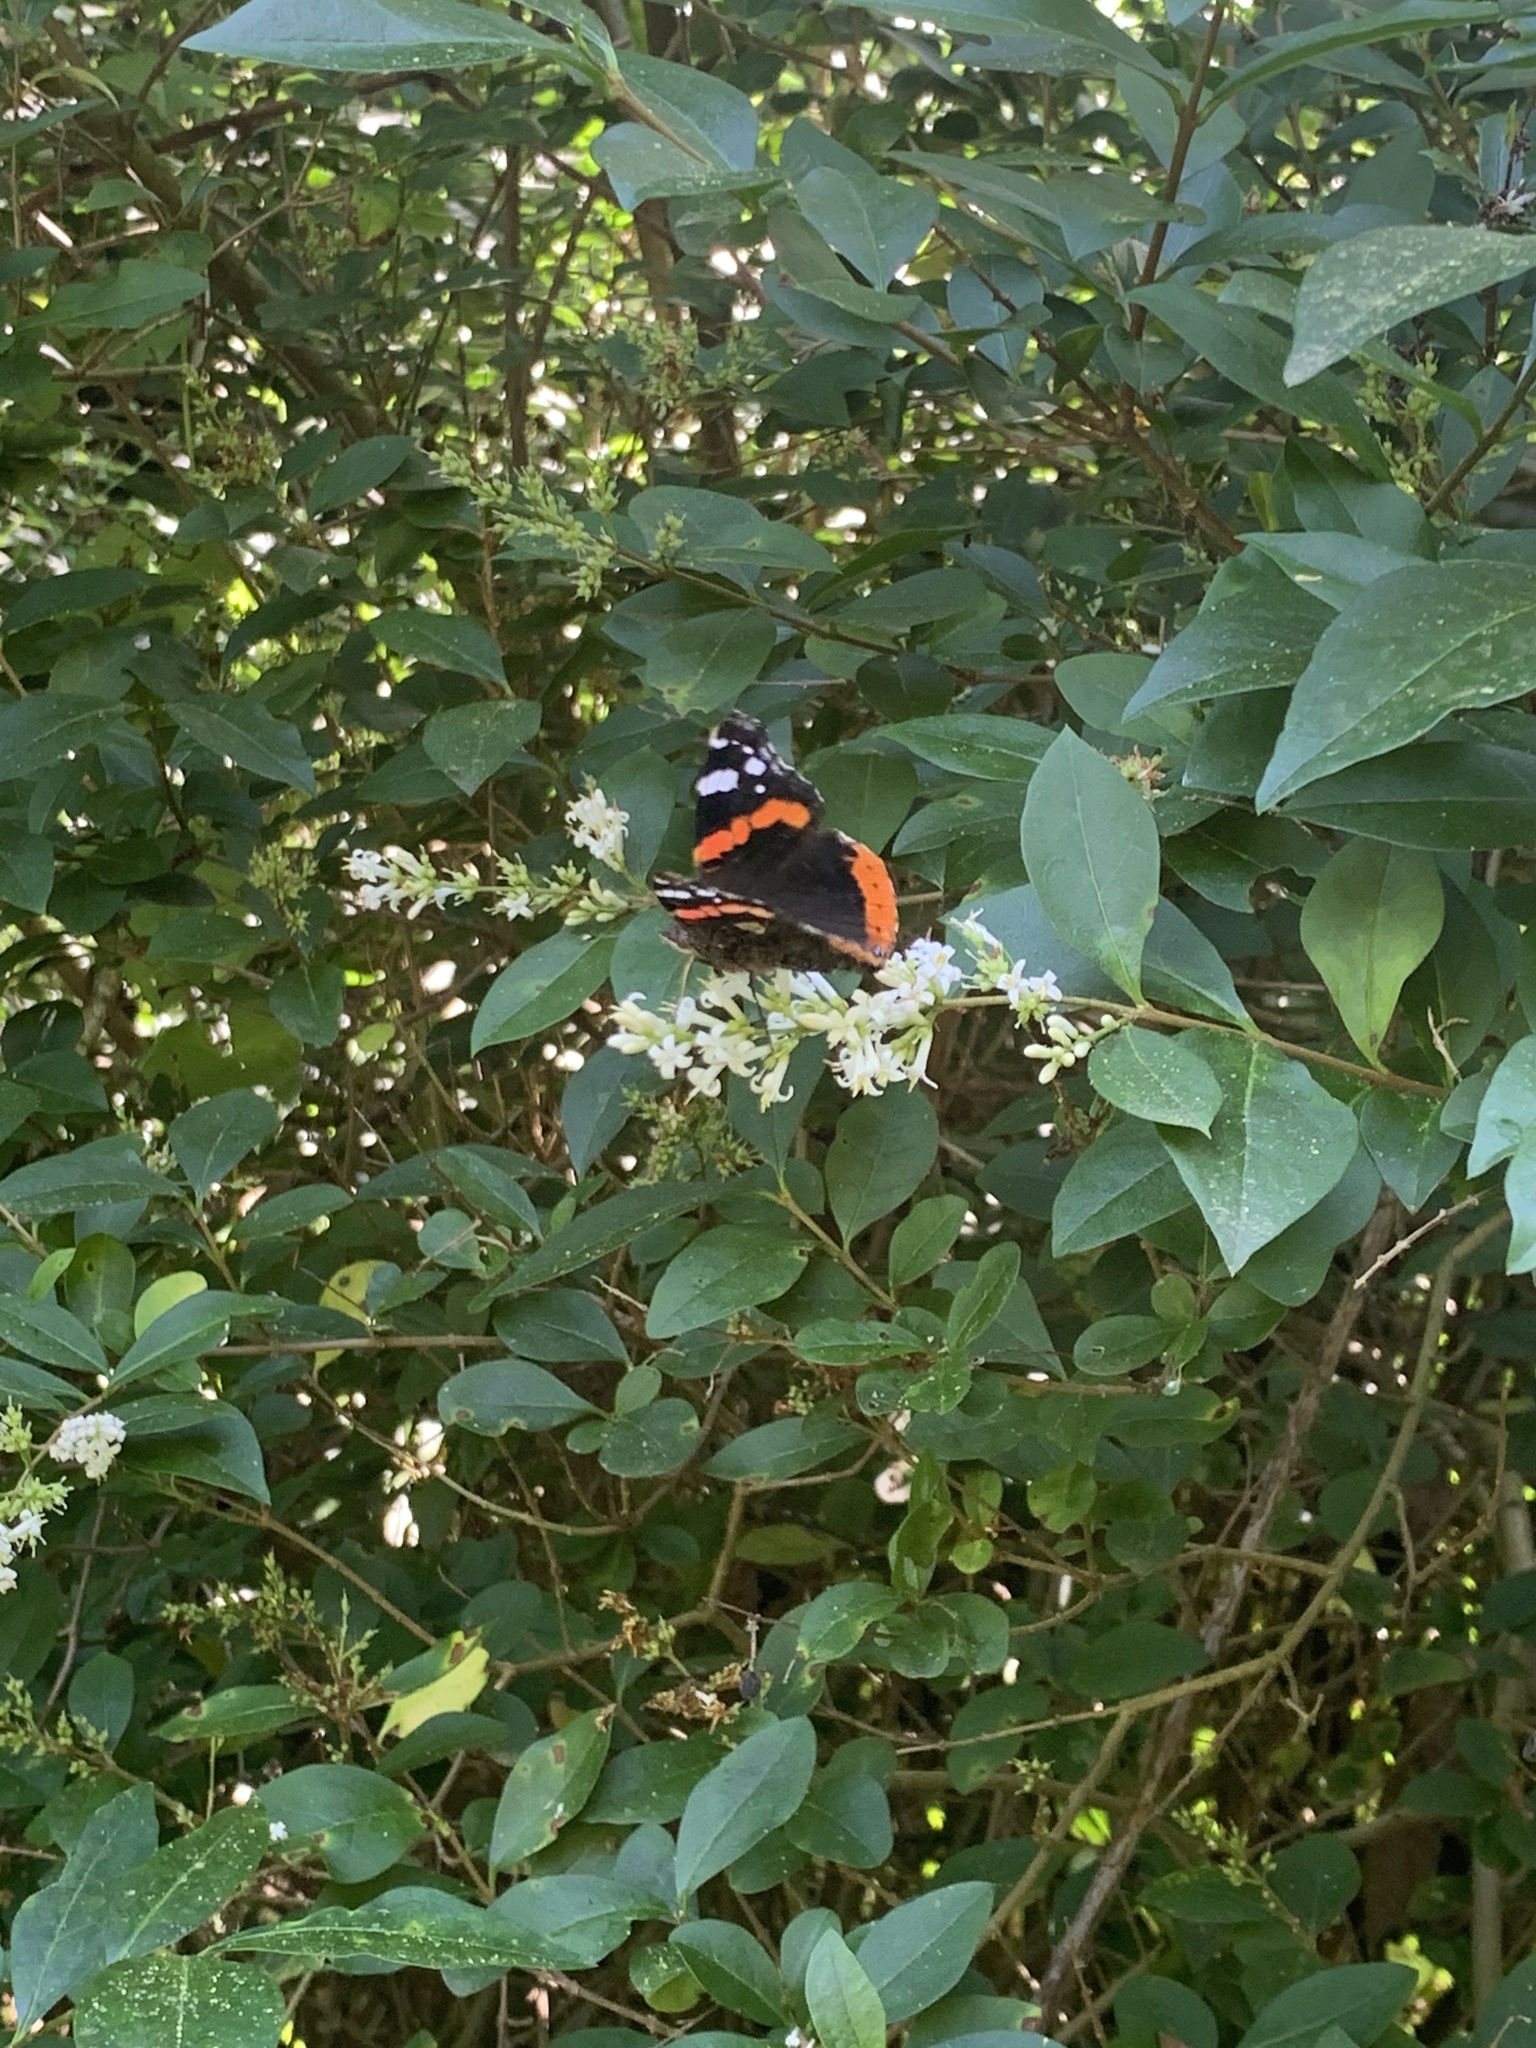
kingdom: Animalia
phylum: Arthropoda
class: Insecta
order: Lepidoptera
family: Nymphalidae
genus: Vanessa
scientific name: Vanessa atalanta
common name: Red admiral
